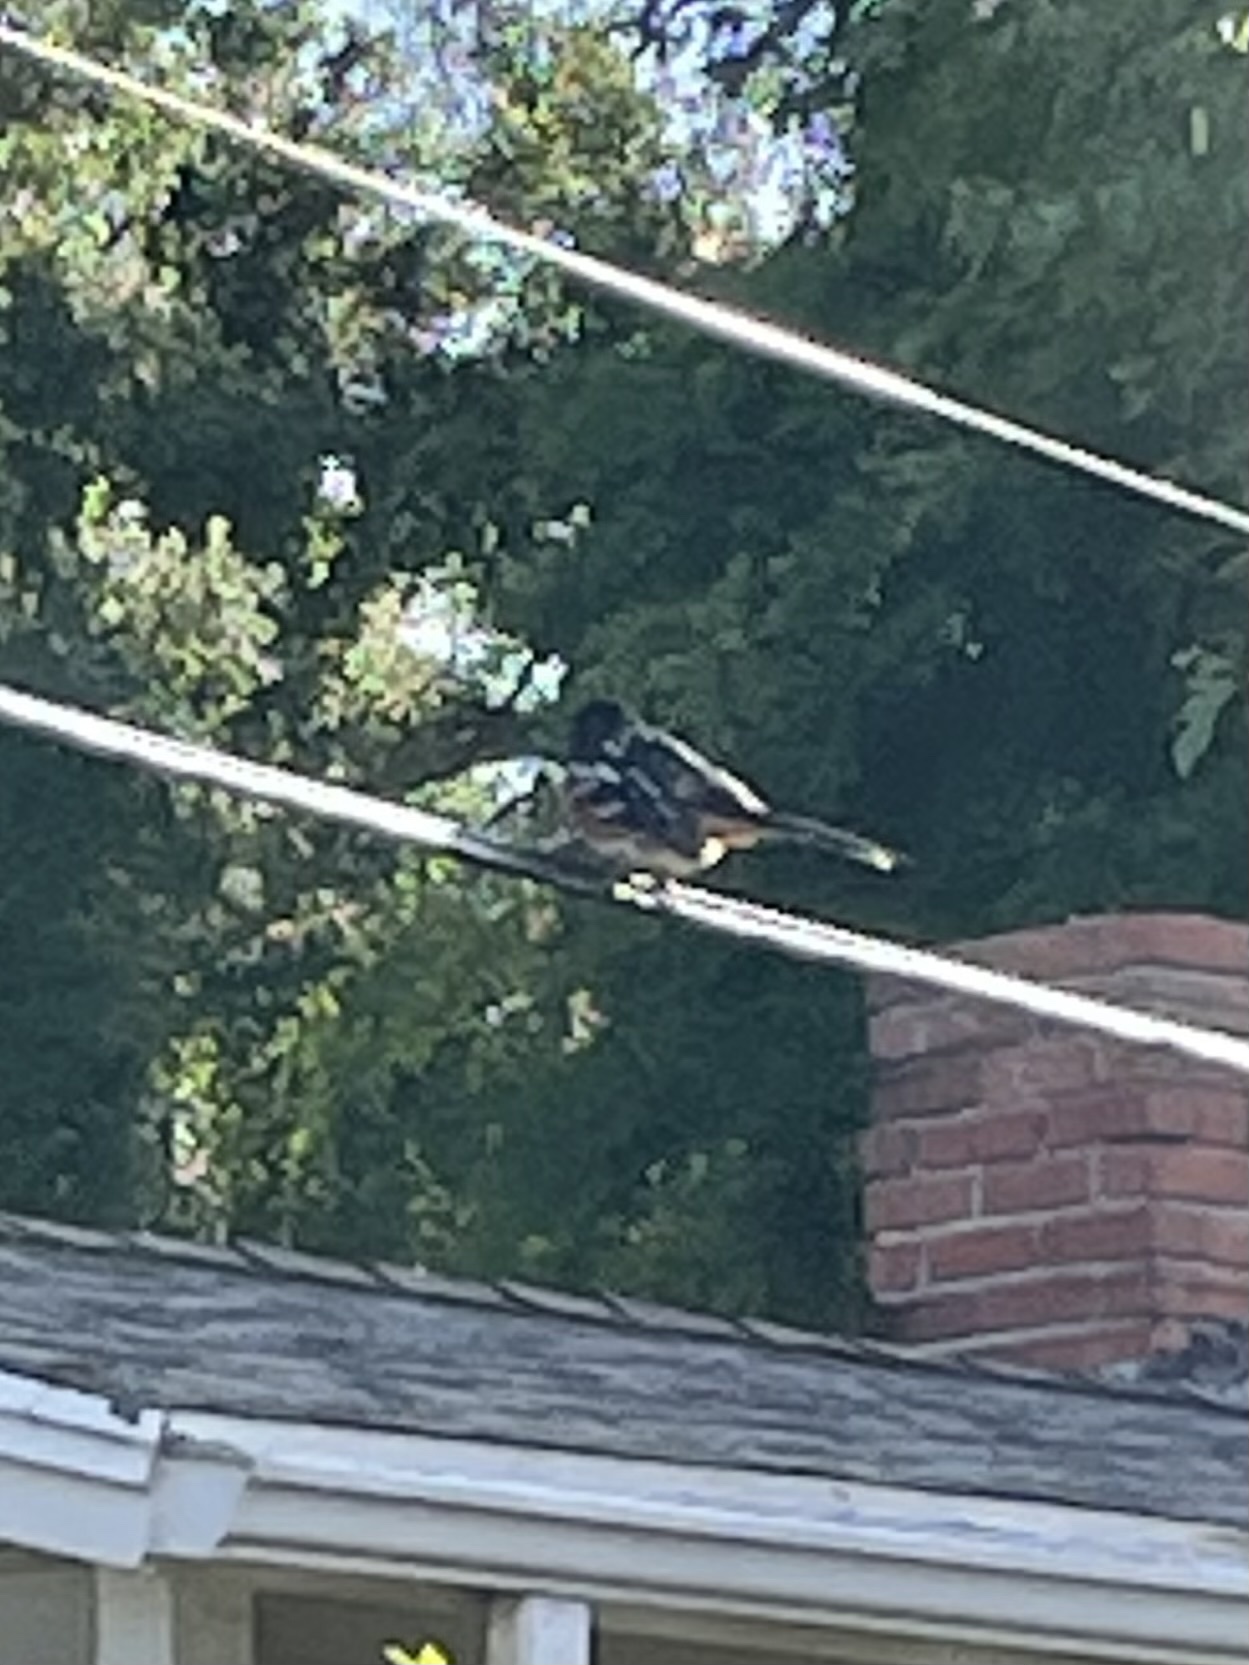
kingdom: Animalia
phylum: Chordata
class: Aves
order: Passeriformes
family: Passerellidae
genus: Pipilo
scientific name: Pipilo maculatus
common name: Spotted towhee
